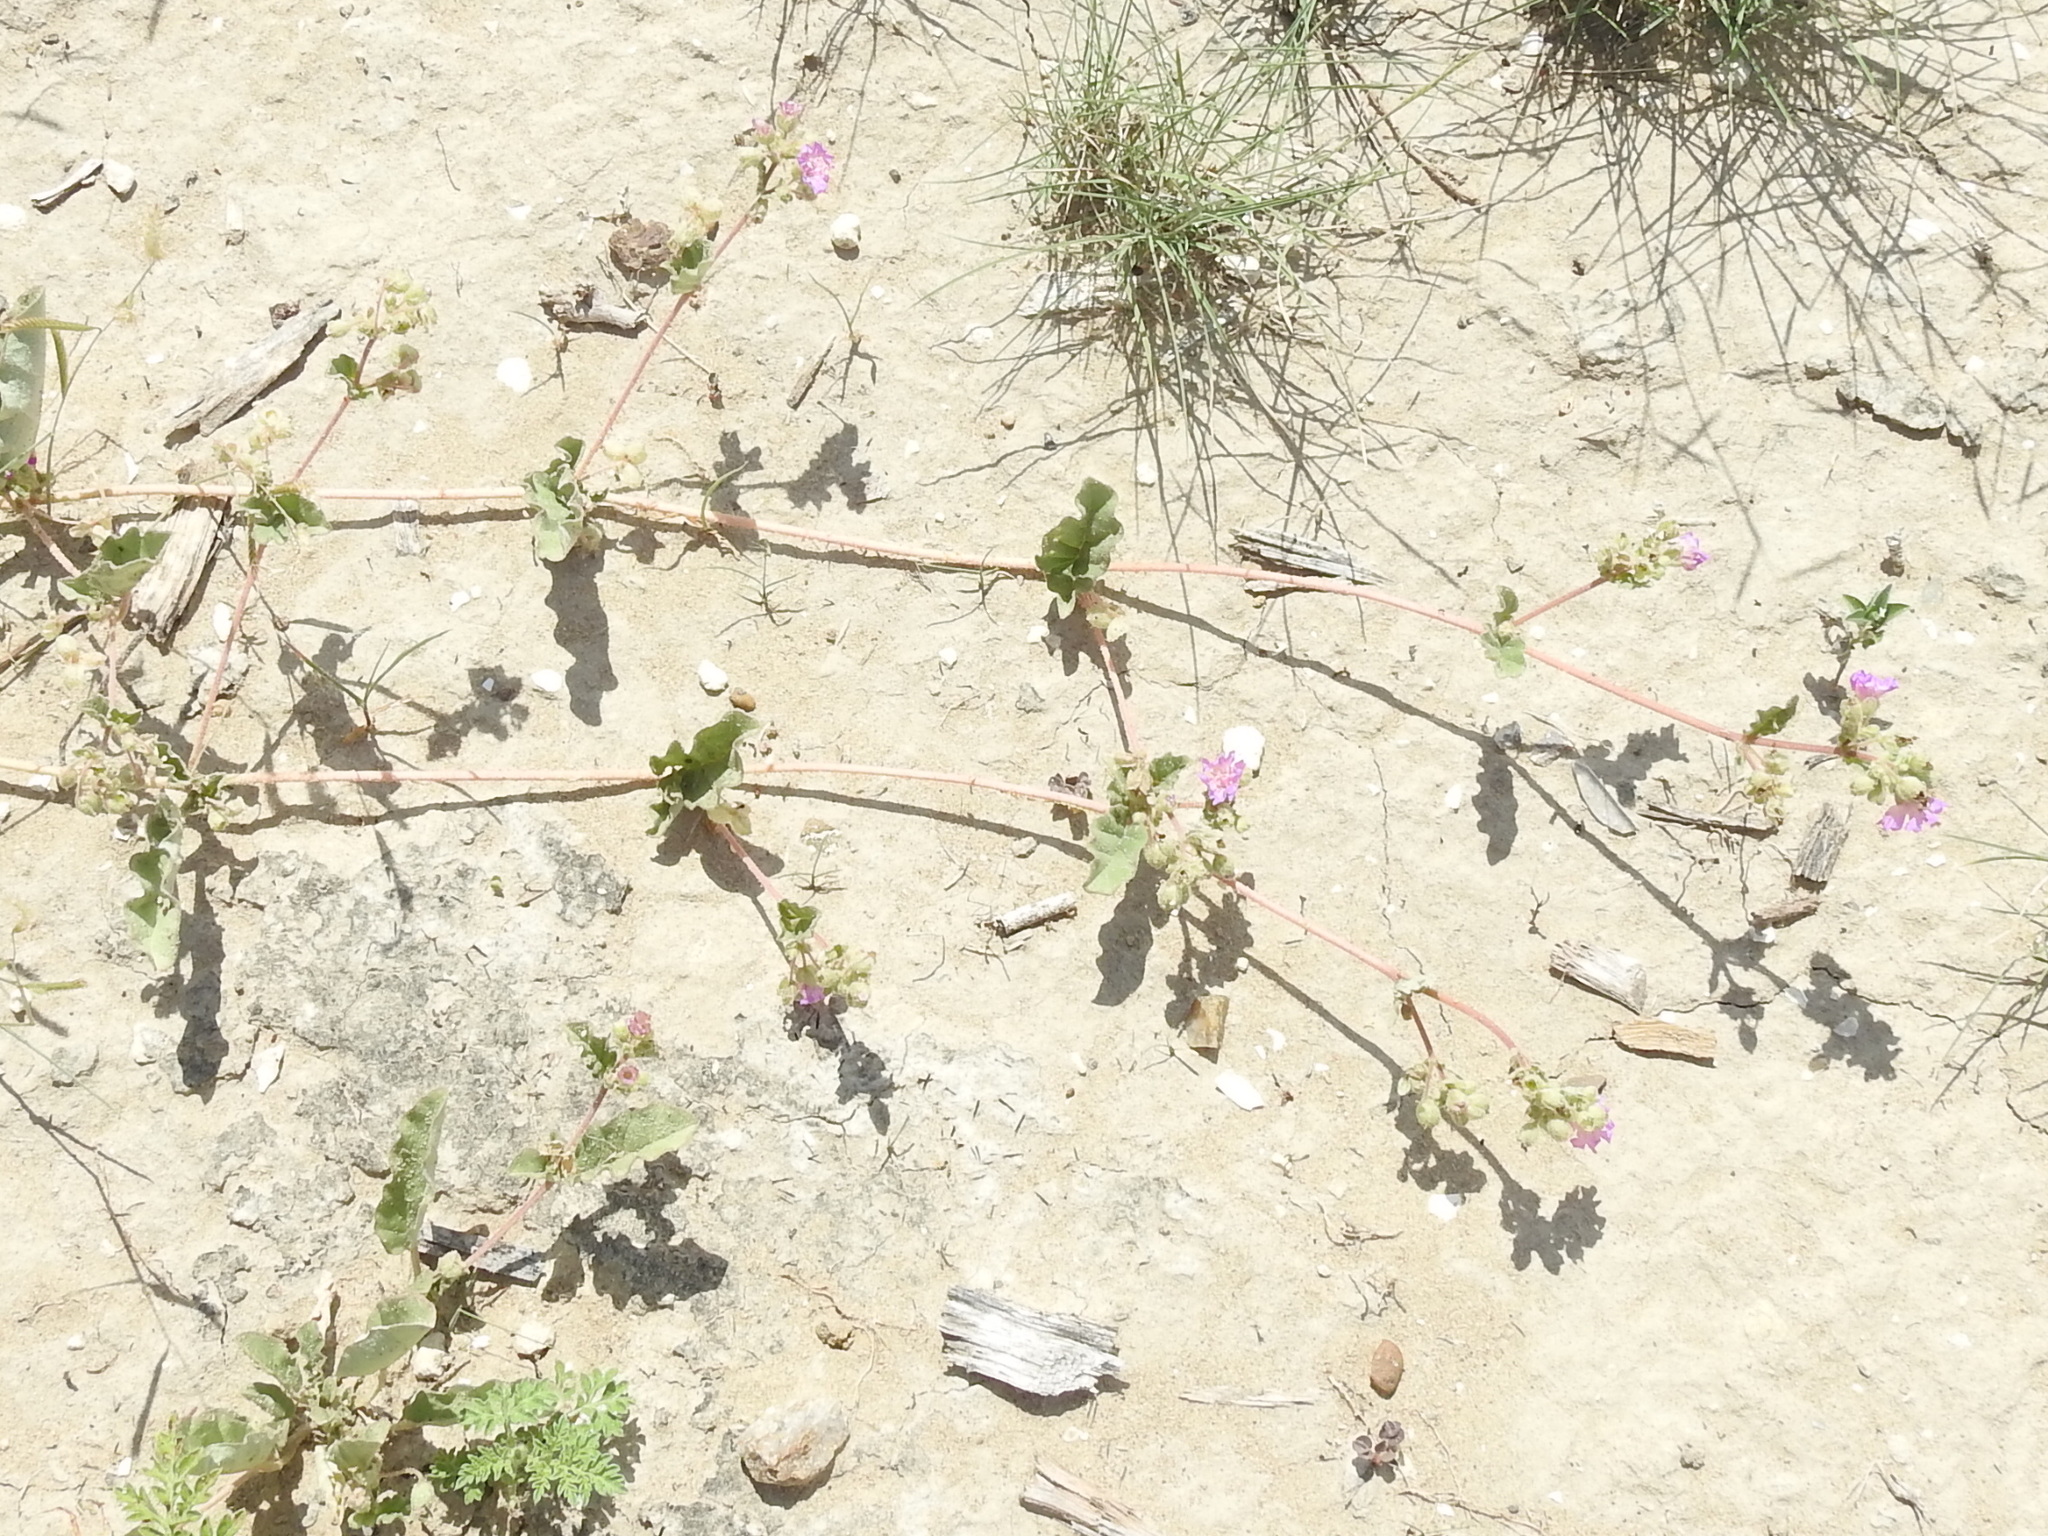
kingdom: Plantae
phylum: Tracheophyta
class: Magnoliopsida
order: Caryophyllales
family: Nyctaginaceae
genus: Allionia
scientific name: Allionia incarnata
